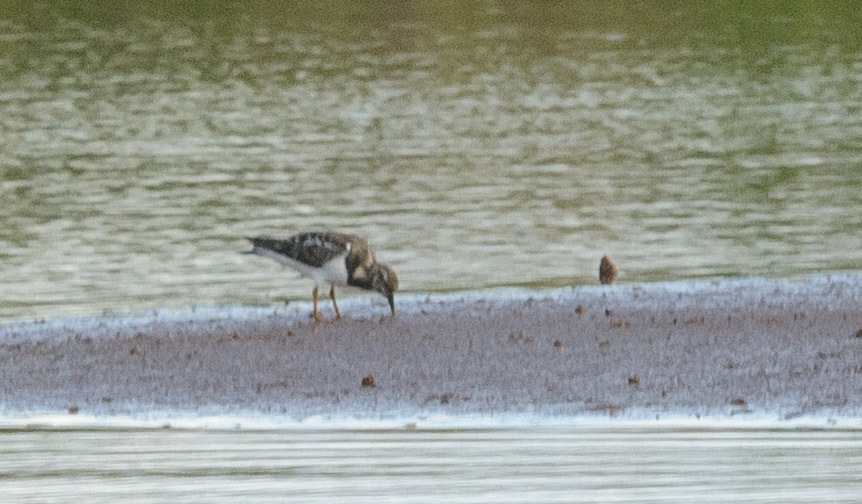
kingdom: Animalia
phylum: Chordata
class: Aves
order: Charadriiformes
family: Scolopacidae
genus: Arenaria
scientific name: Arenaria interpres
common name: Ruddy turnstone
